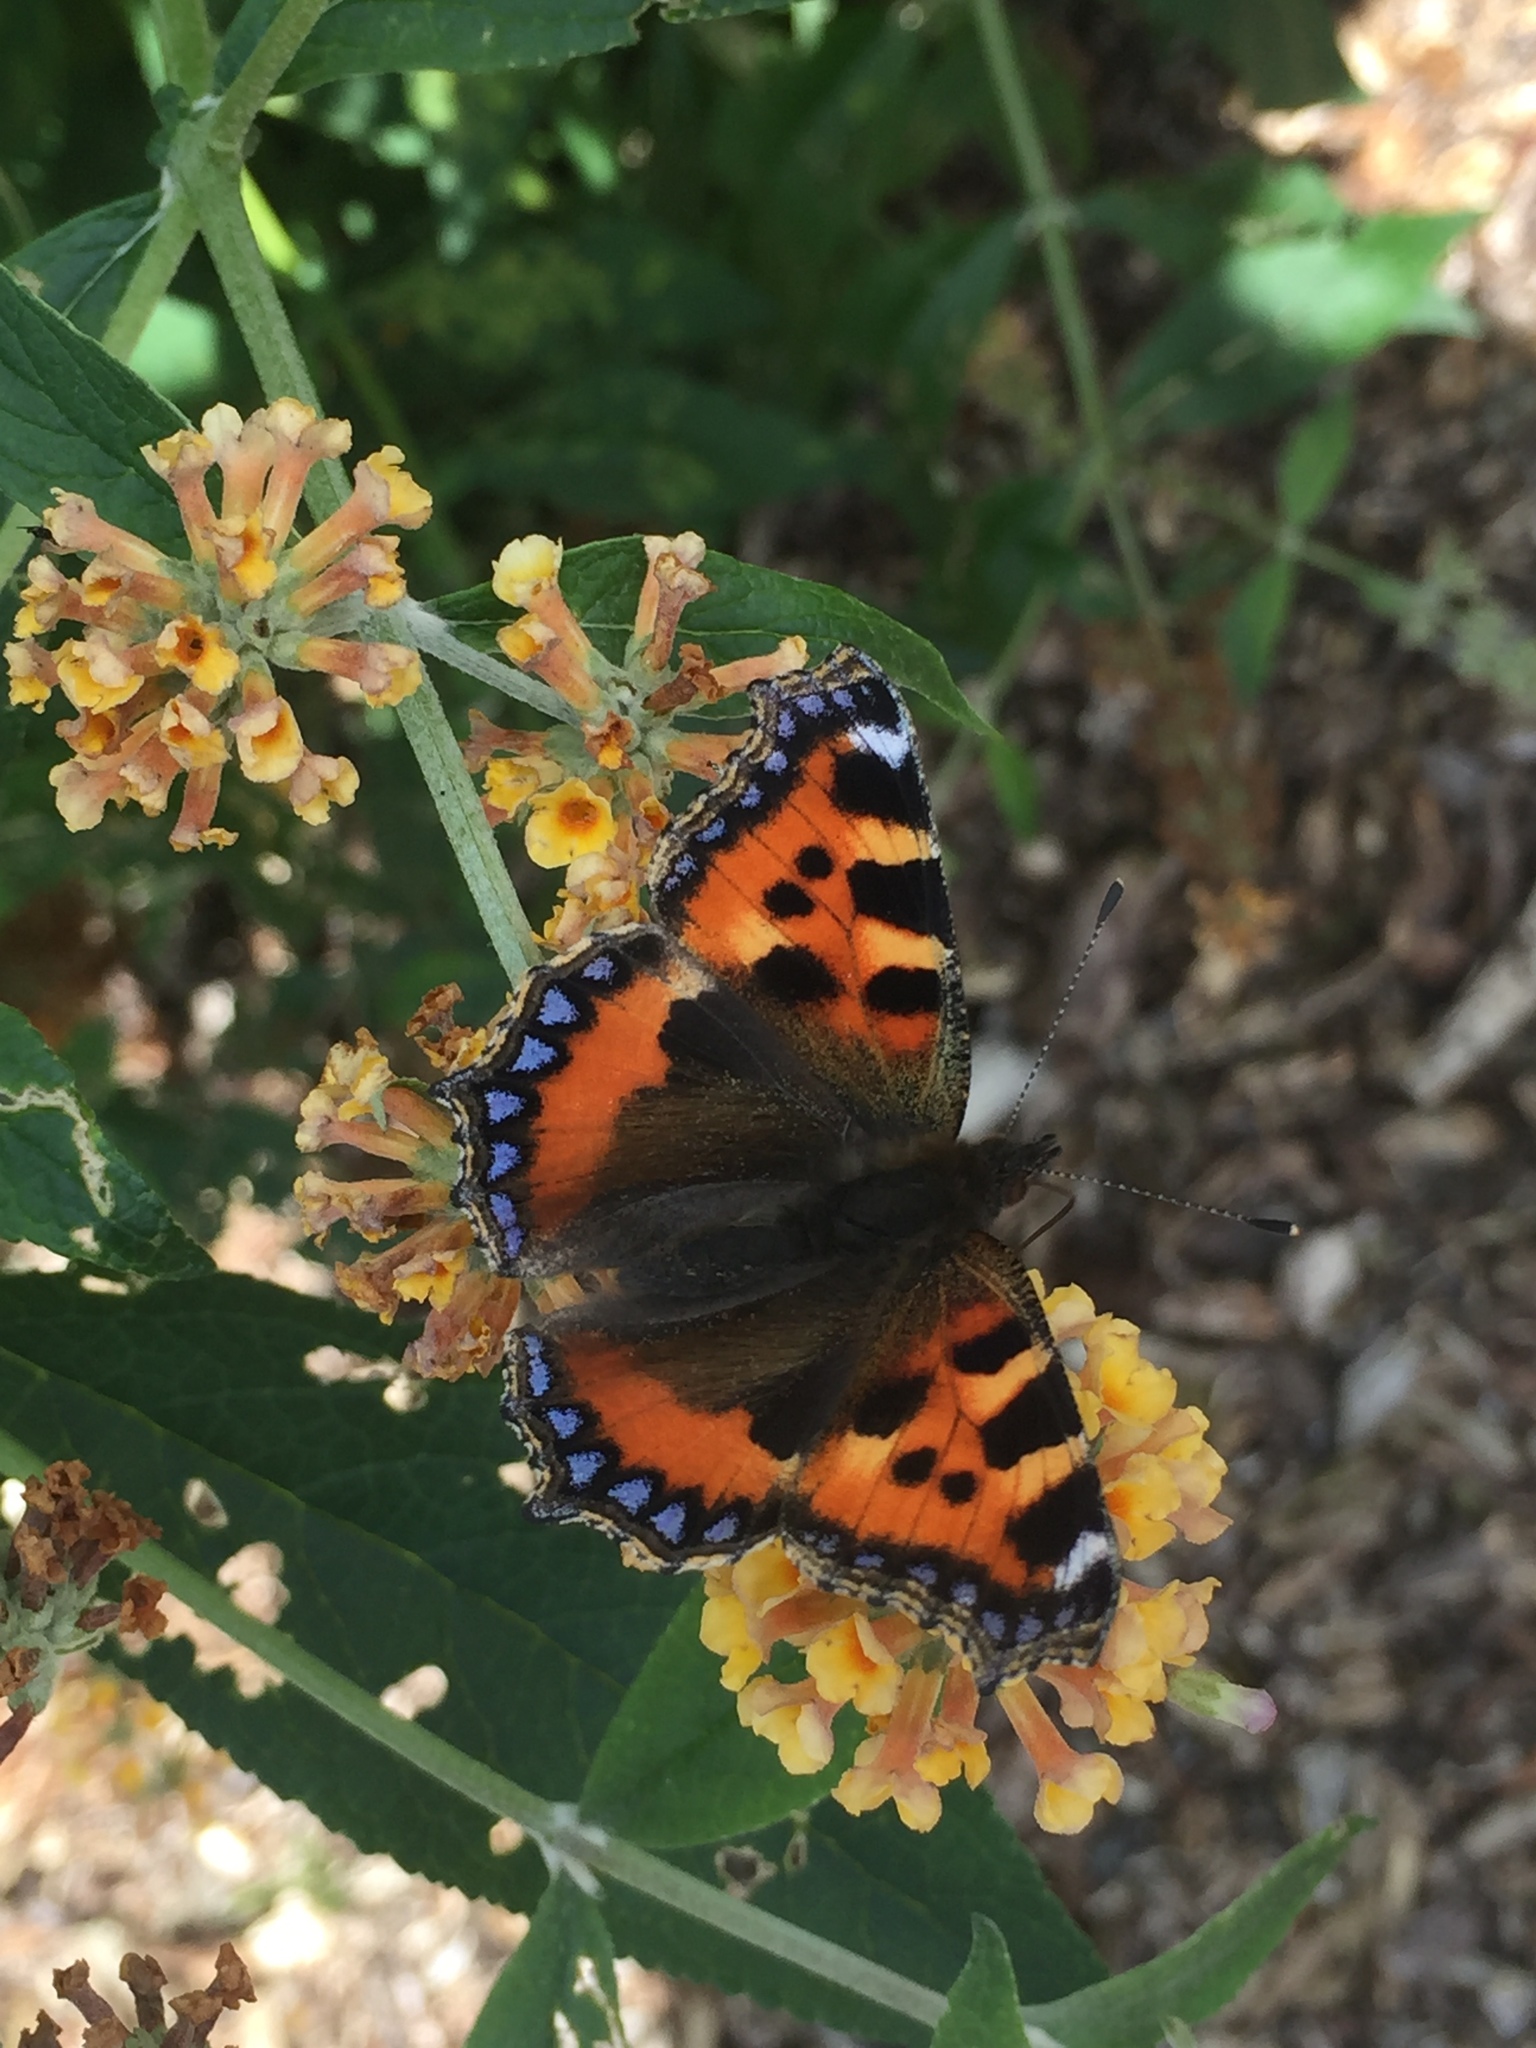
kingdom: Animalia
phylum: Arthropoda
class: Insecta
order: Lepidoptera
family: Nymphalidae
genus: Aglais
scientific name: Aglais urticae
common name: Small tortoiseshell
